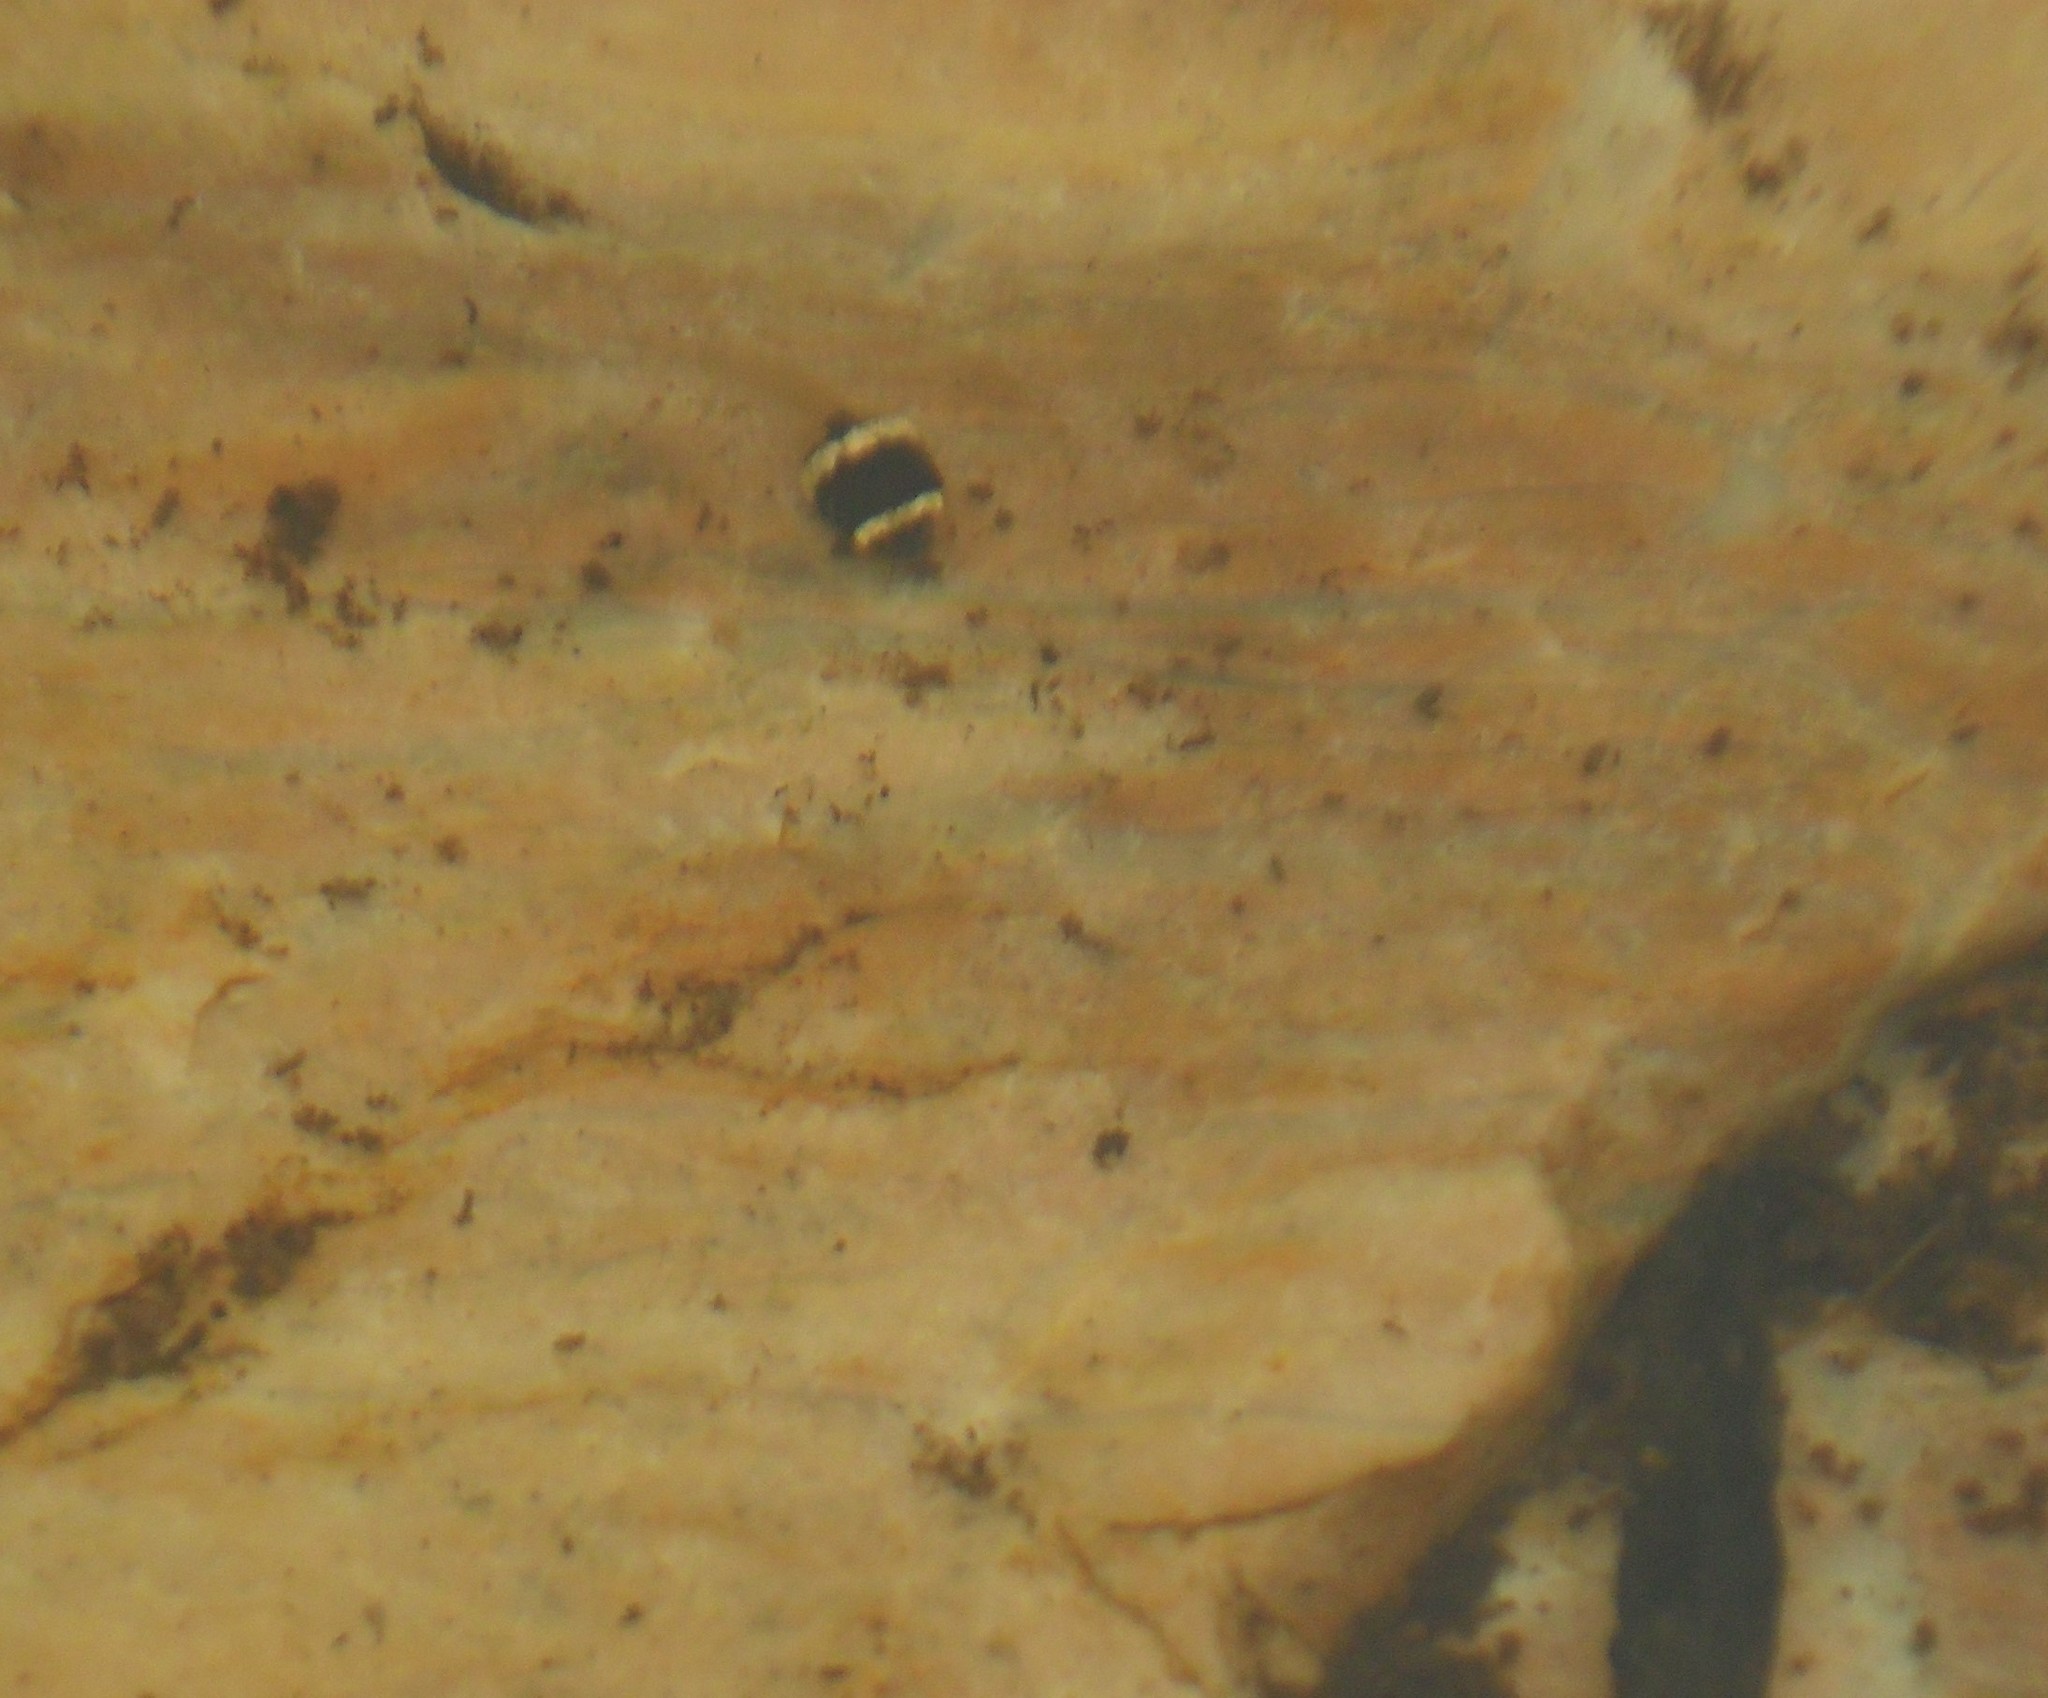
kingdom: Animalia
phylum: Chordata
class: Amphibia
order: Anura
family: Hylidae
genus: Ololygon
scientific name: Ololygon machadoi
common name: Machado's snouted treefrog
